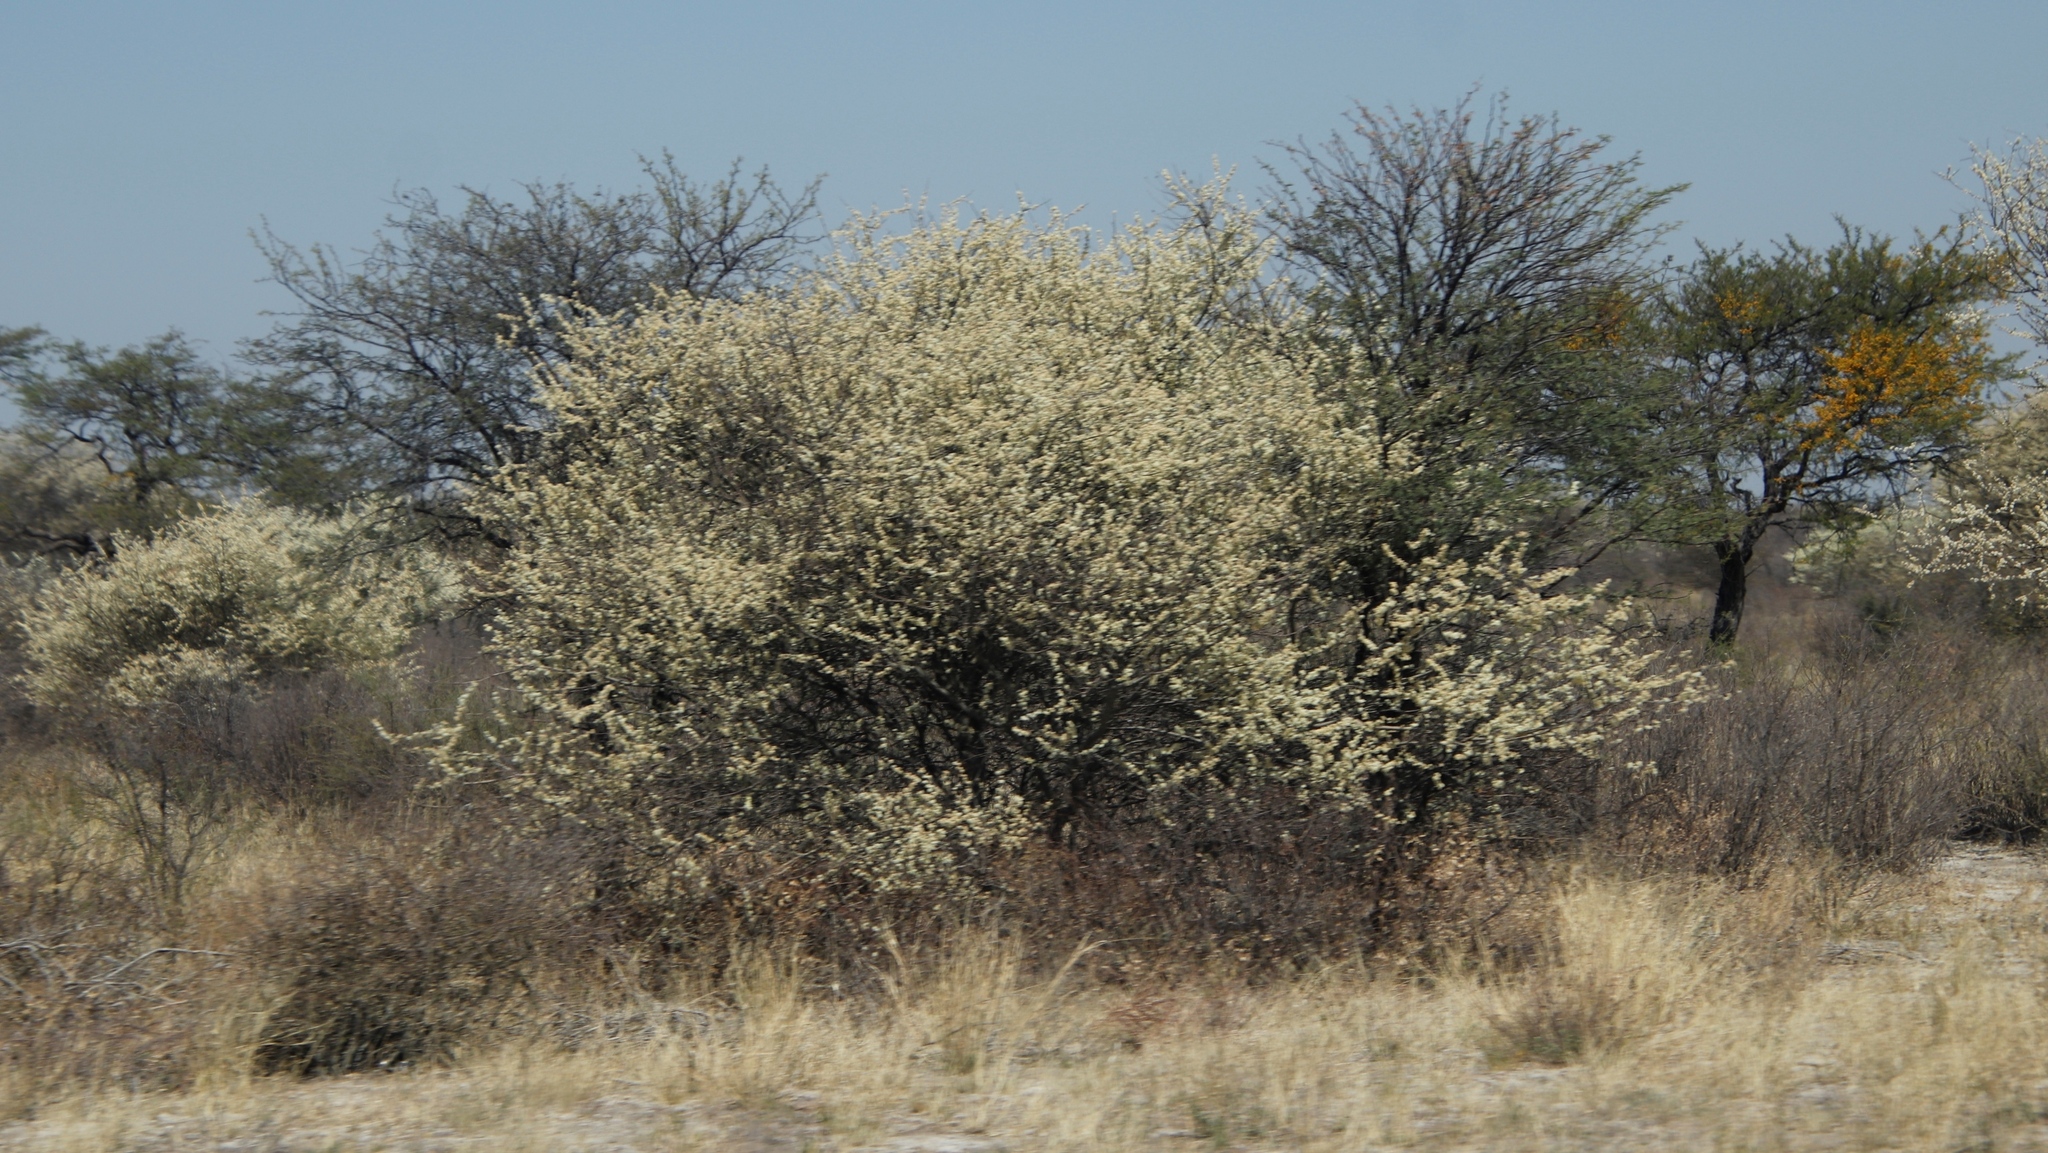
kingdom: Plantae
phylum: Tracheophyta
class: Magnoliopsida
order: Fabales
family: Fabaceae
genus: Senegalia
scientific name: Senegalia mellifera
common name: Hookthorn
